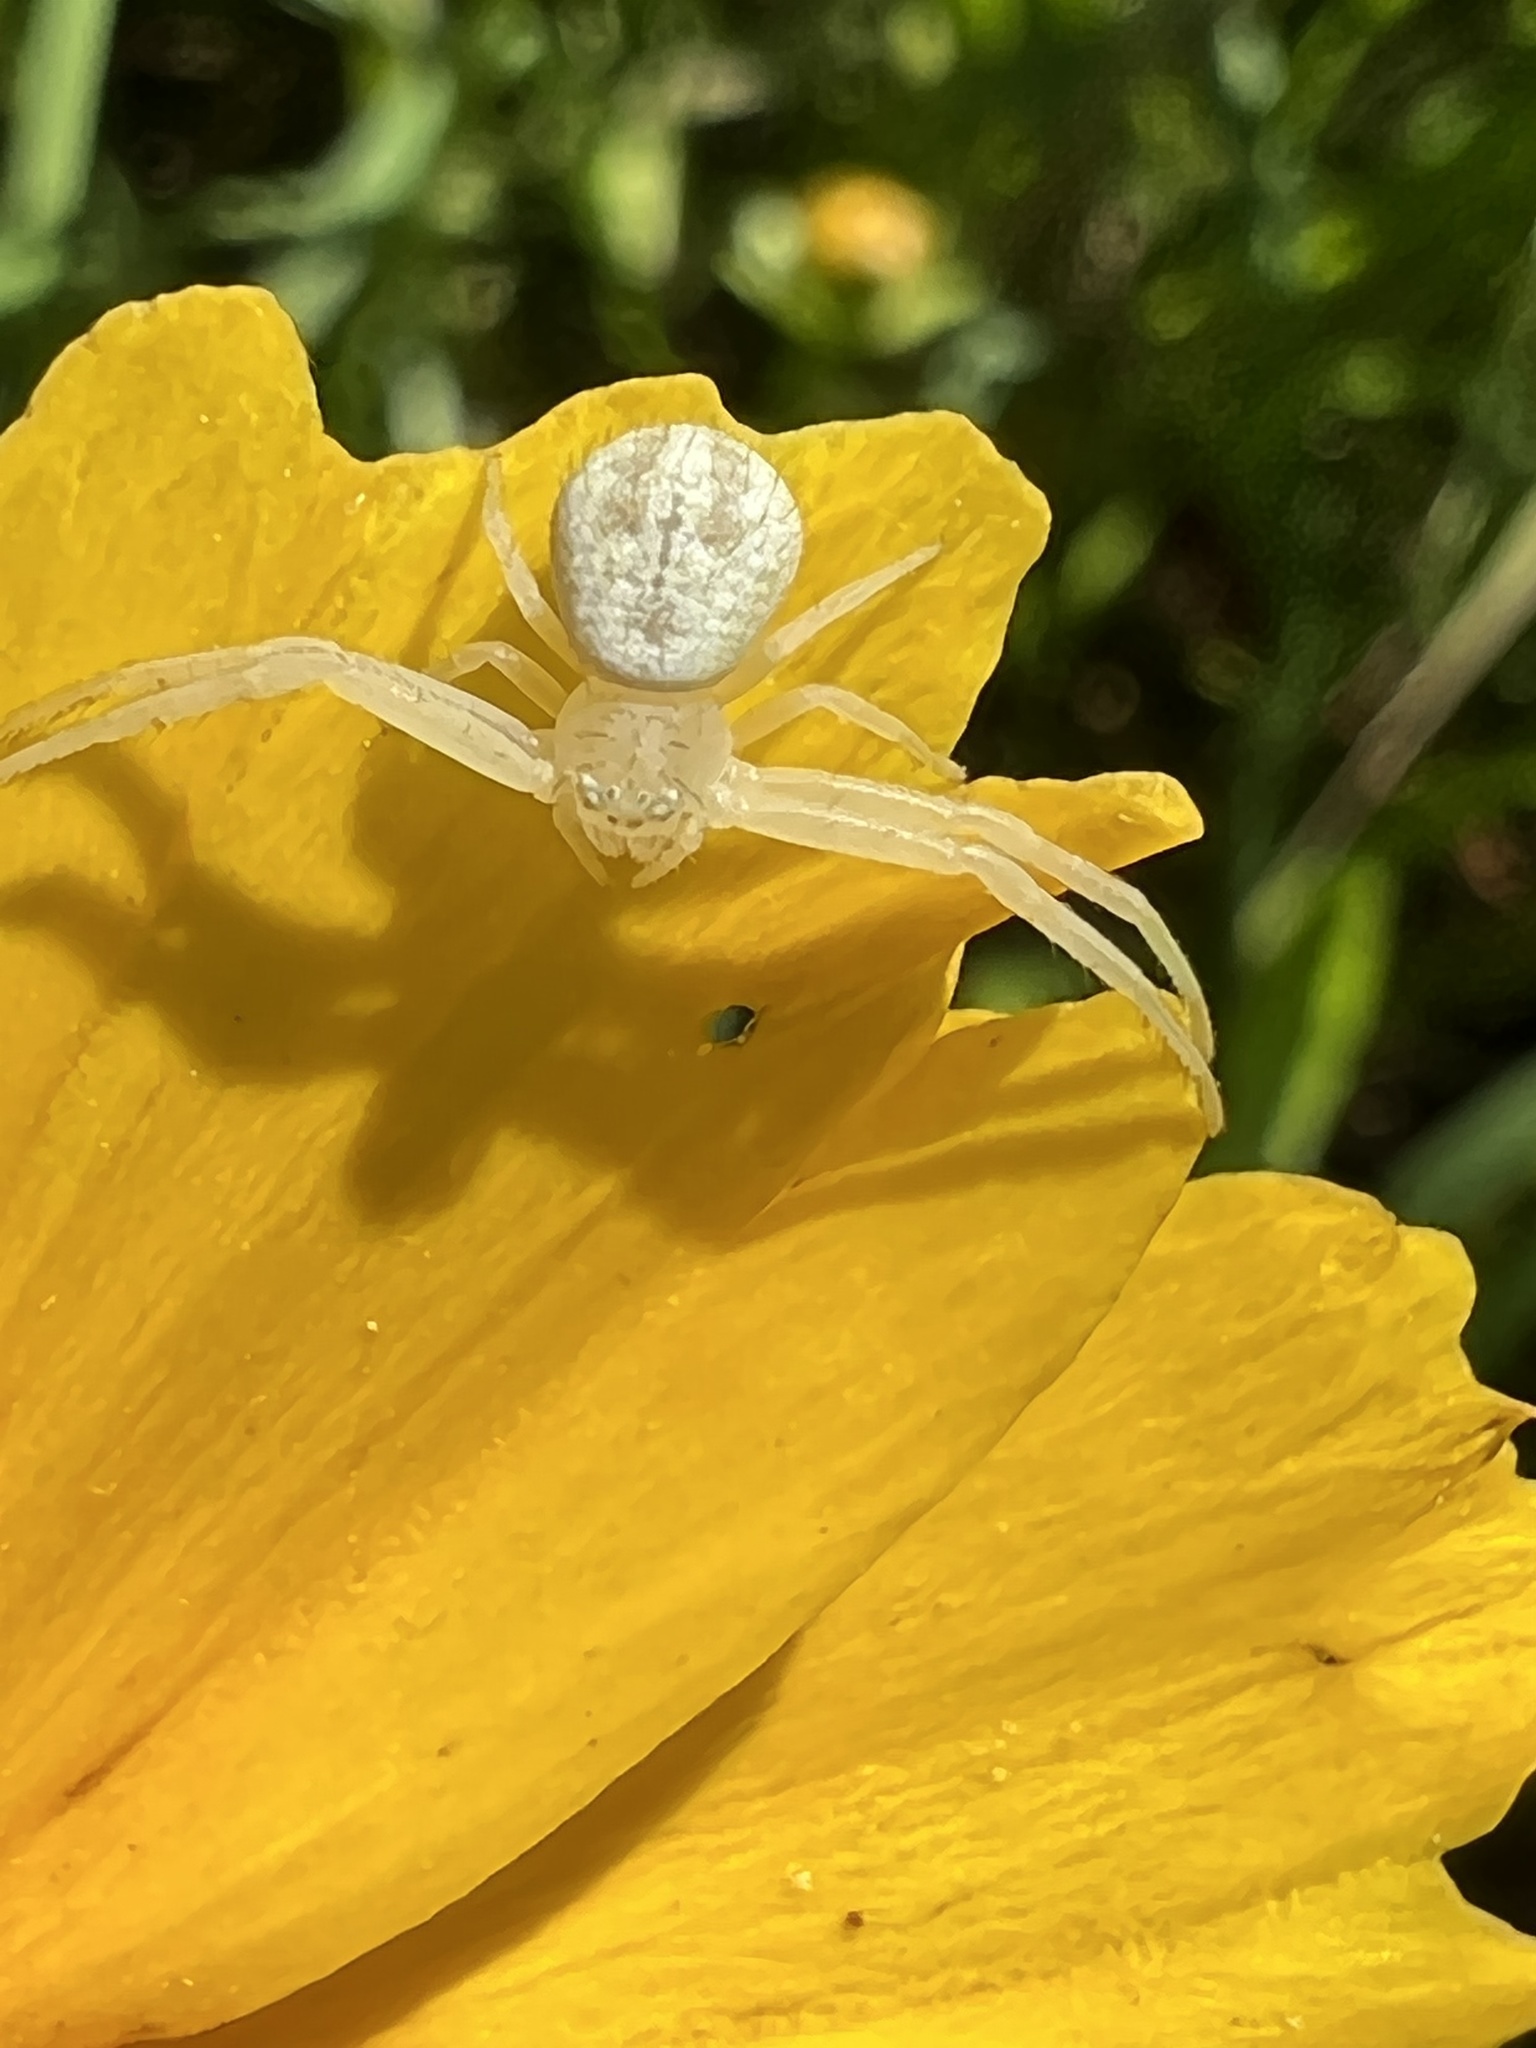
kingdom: Animalia
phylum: Arthropoda
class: Arachnida
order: Araneae
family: Thomisidae
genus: Mecaphesa
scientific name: Mecaphesa asperata
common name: Crab spiders
